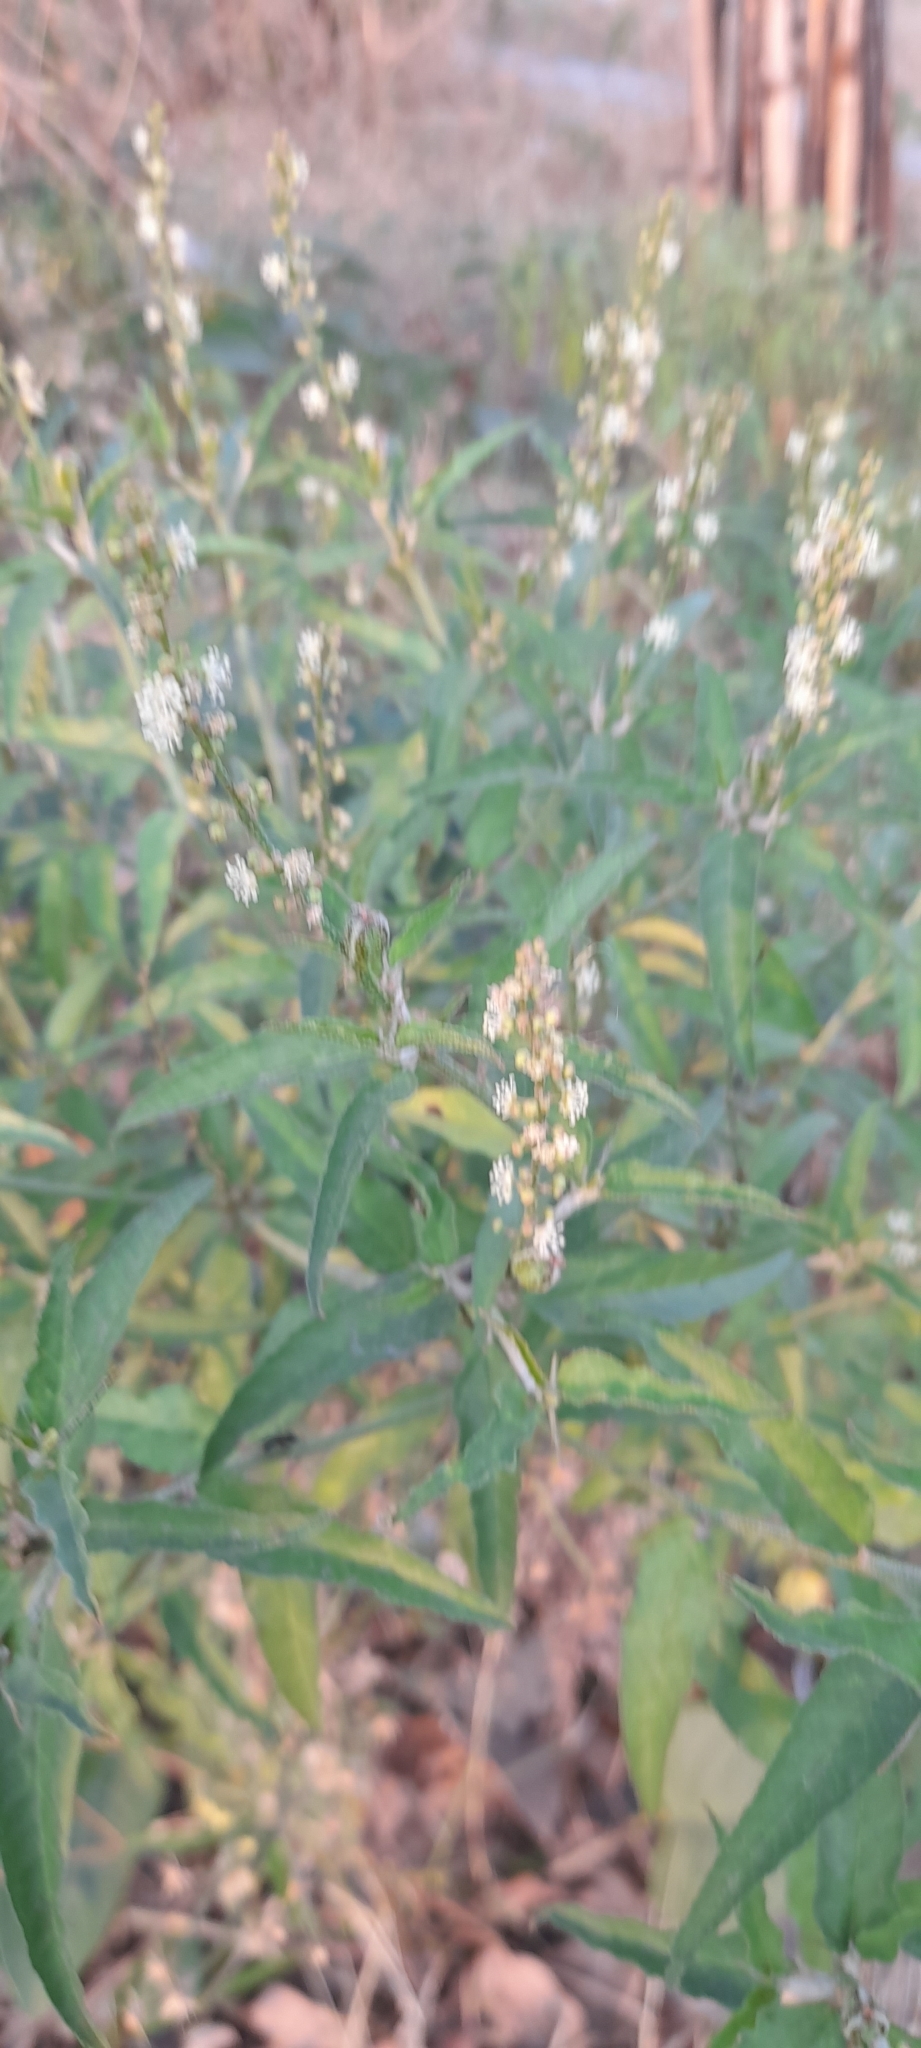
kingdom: Plantae
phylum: Tracheophyta
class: Magnoliopsida
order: Malpighiales
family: Euphorbiaceae
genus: Croton
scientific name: Croton bonplandianus
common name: Bonpland's croton
